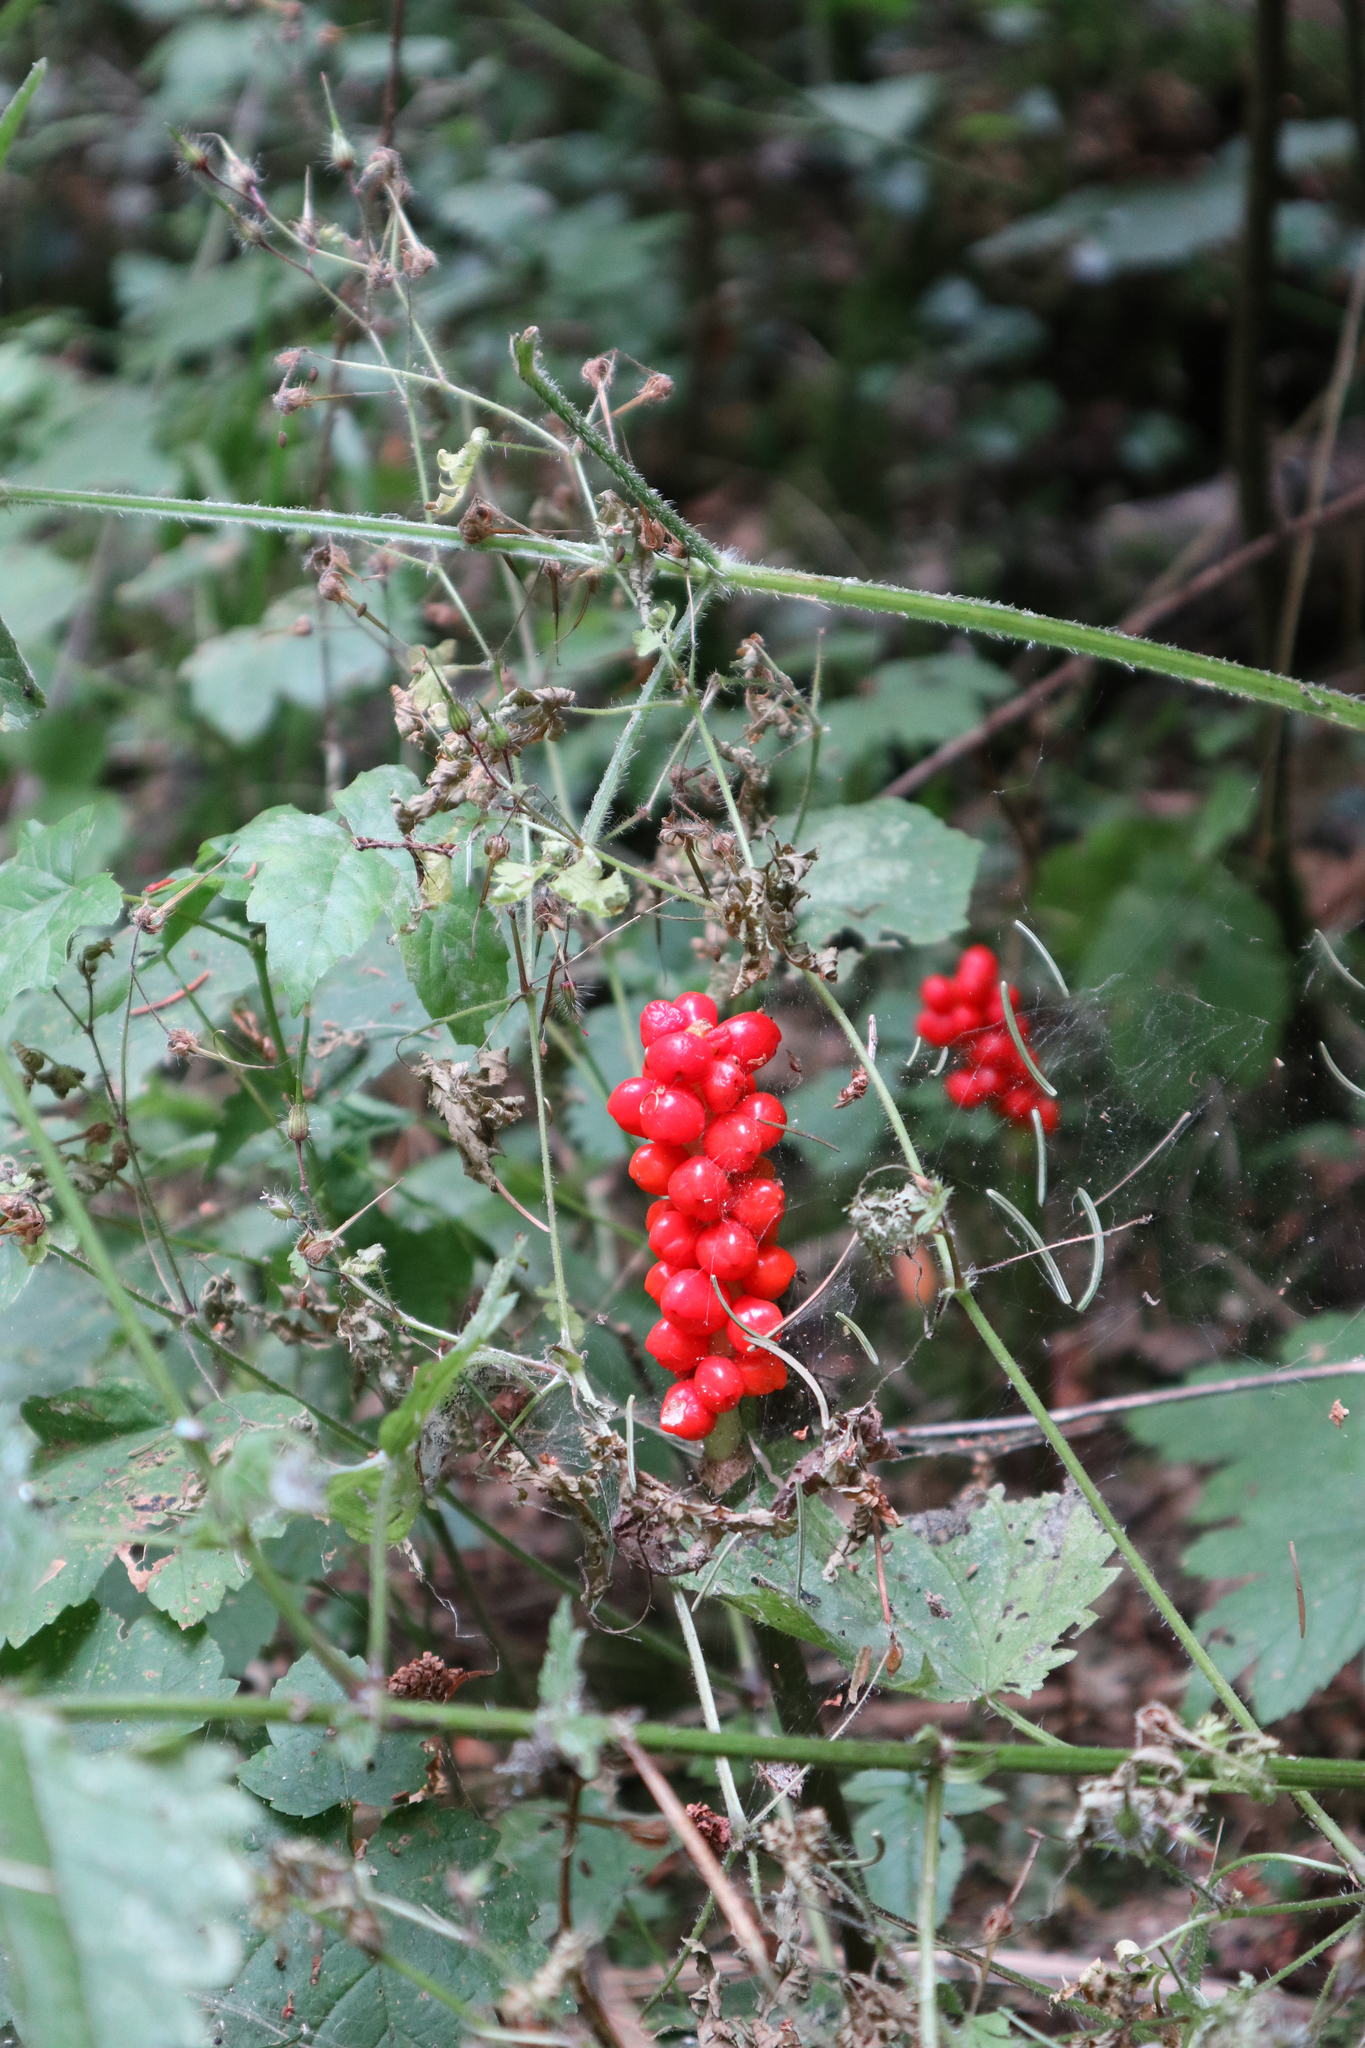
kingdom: Plantae
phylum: Tracheophyta
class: Liliopsida
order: Alismatales
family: Araceae
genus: Arum
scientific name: Arum
